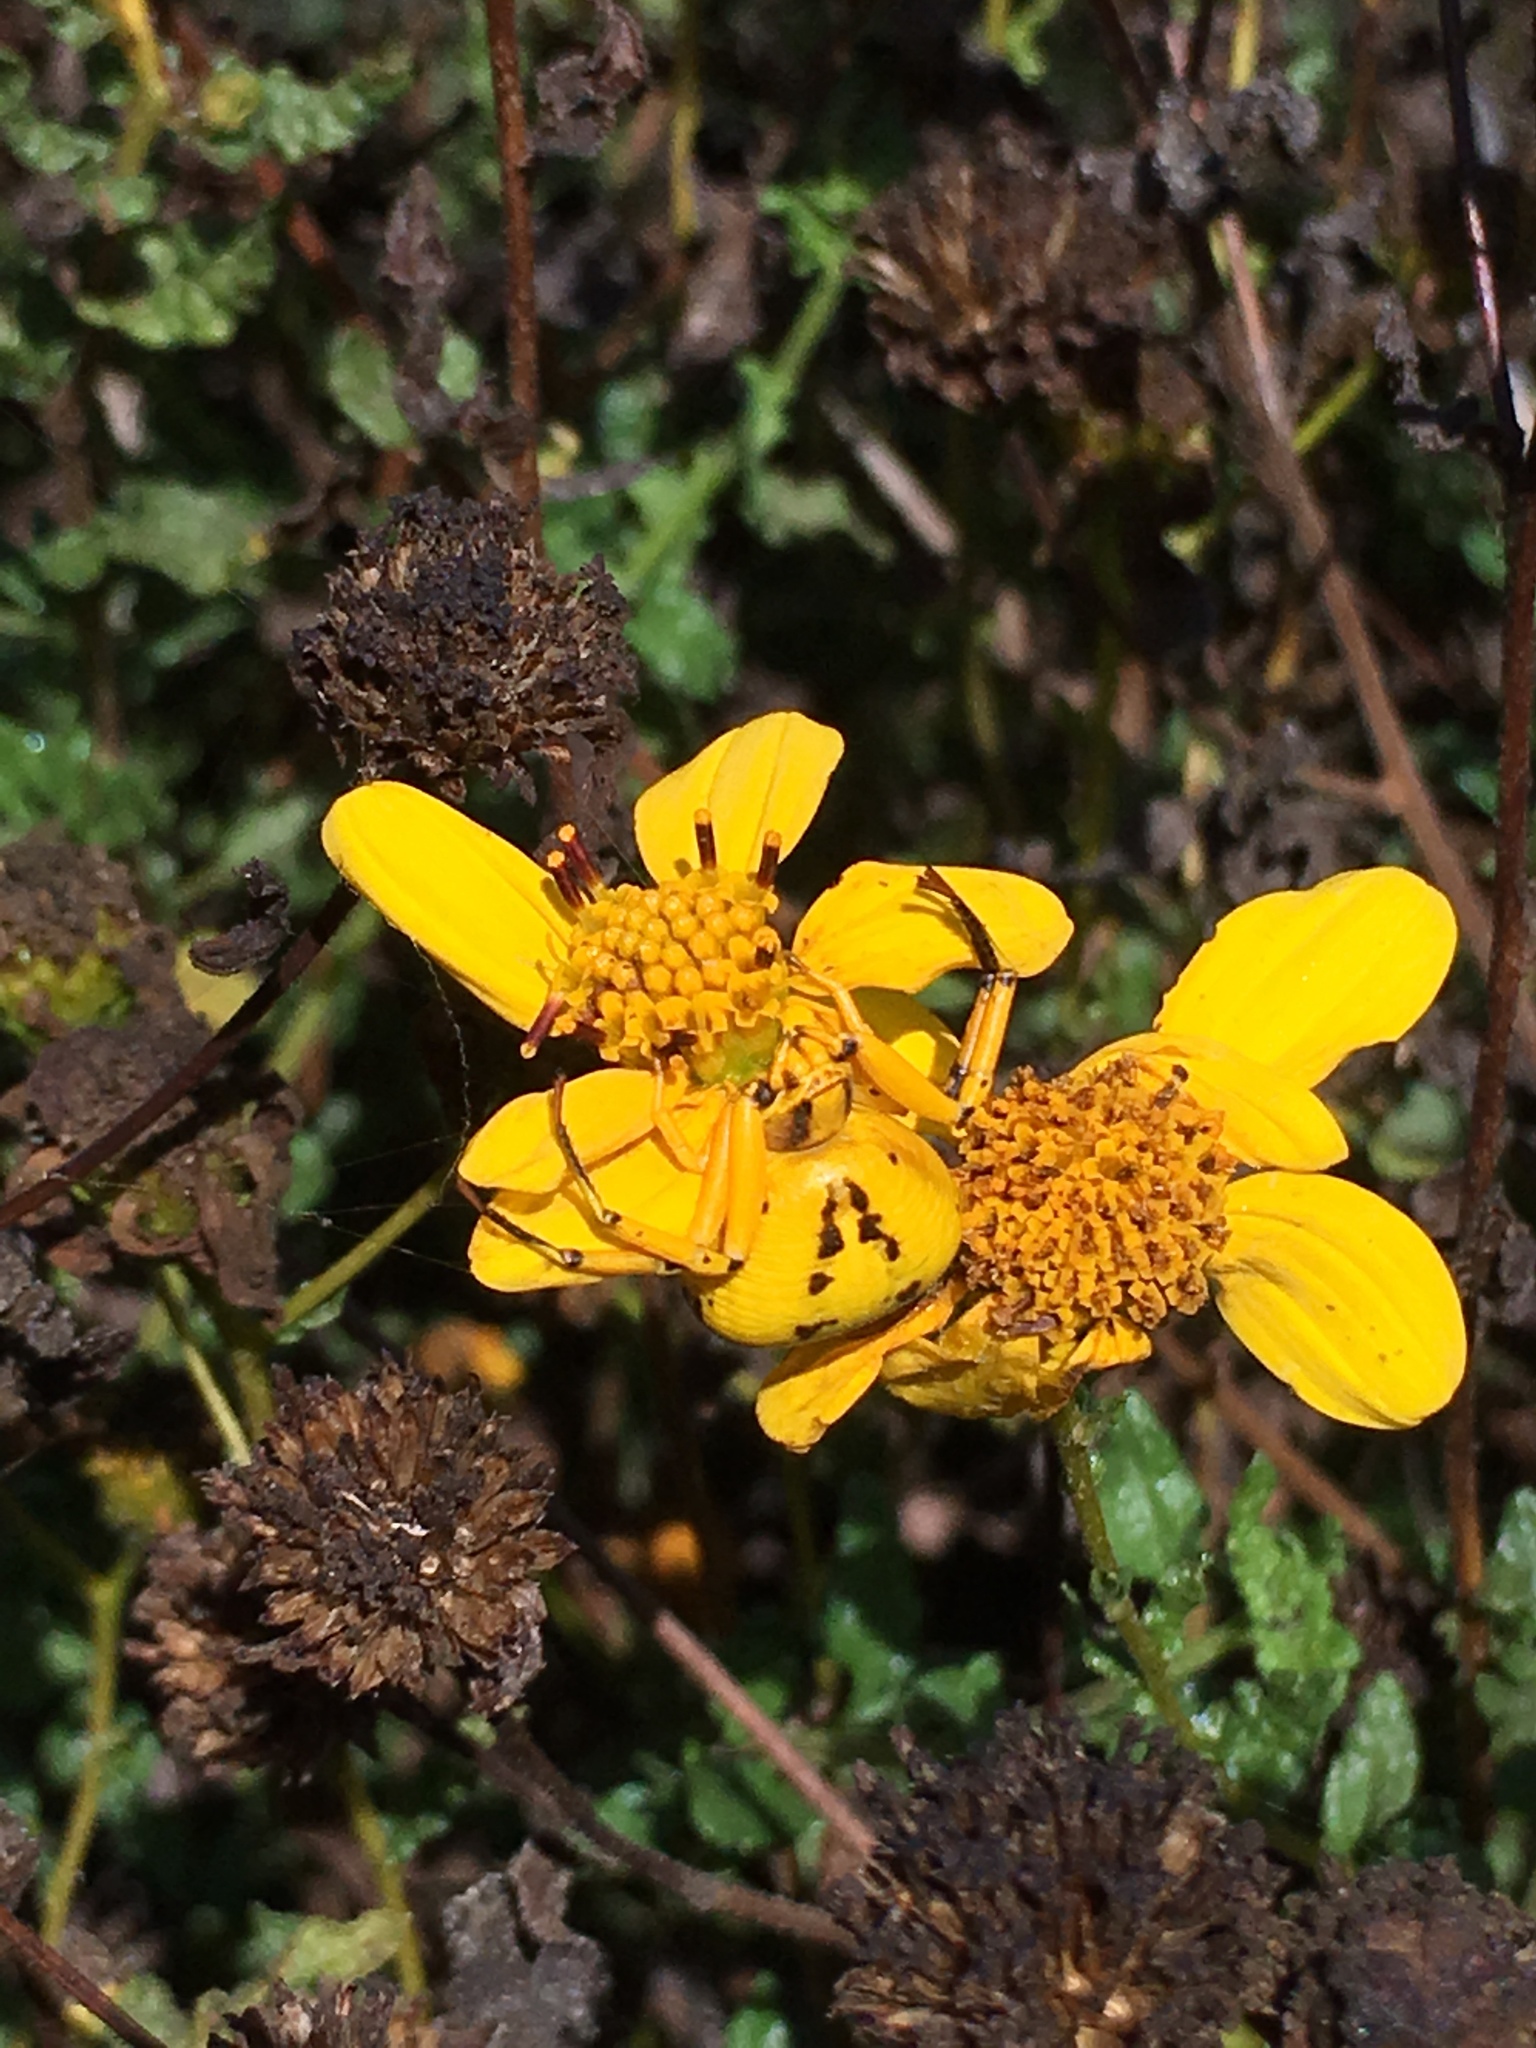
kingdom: Animalia
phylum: Arthropoda
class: Arachnida
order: Araneae
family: Thomisidae
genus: Misumenoides
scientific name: Misumenoides formosipes
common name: White-banded crab spider
